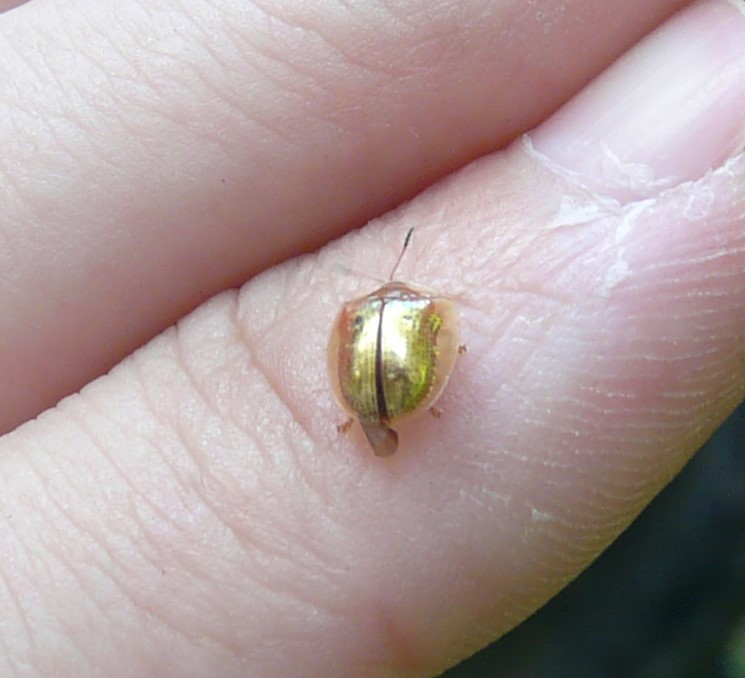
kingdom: Animalia
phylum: Arthropoda
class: Insecta
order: Coleoptera
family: Chrysomelidae
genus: Charidotella
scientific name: Charidotella sexpunctata
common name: Golden tortoise beetle
